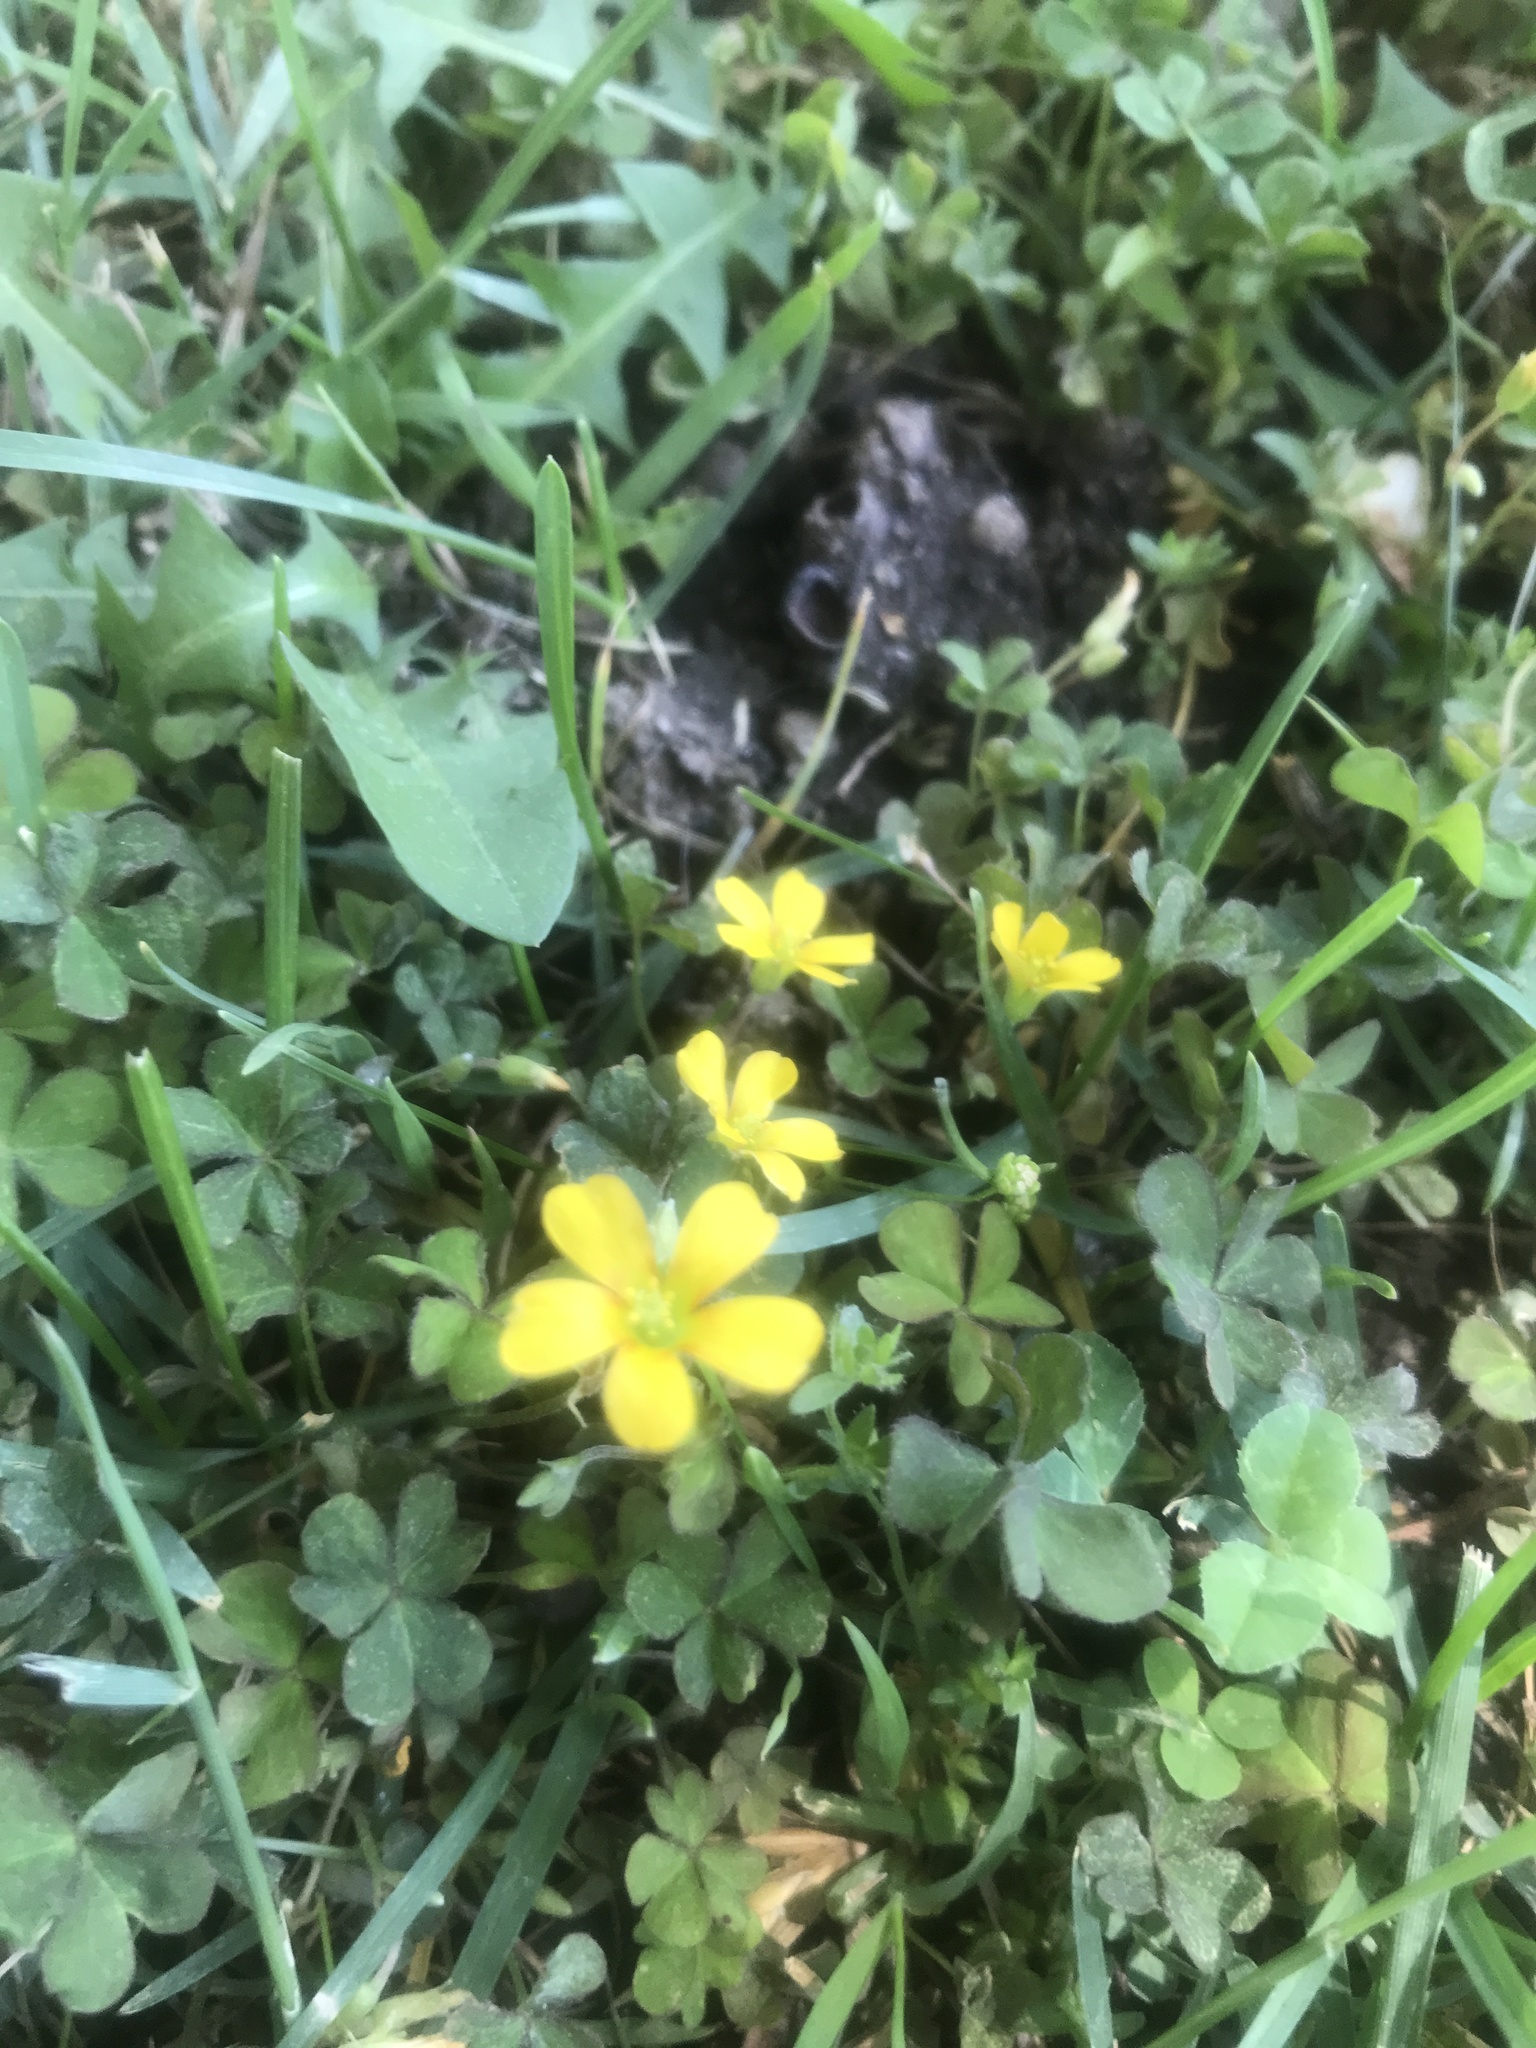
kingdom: Plantae
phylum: Tracheophyta
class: Magnoliopsida
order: Oxalidales
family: Oxalidaceae
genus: Oxalis
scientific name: Oxalis corniculata
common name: Procumbent yellow-sorrel
